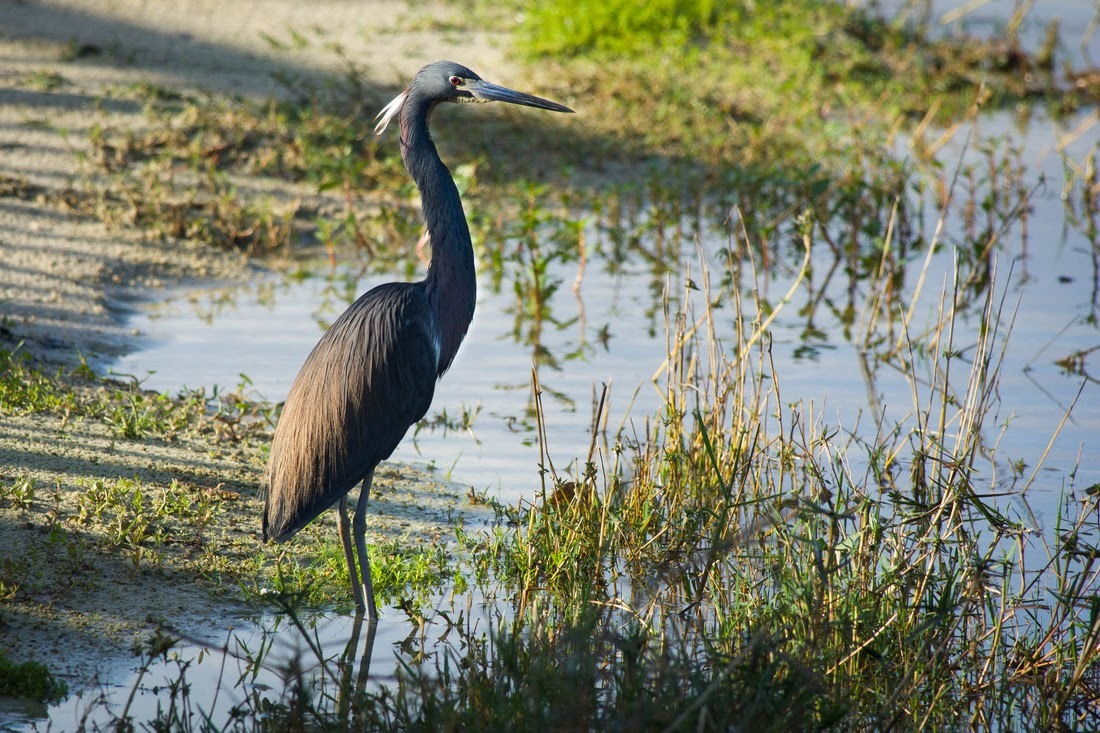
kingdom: Animalia
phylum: Chordata
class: Aves
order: Pelecaniformes
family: Ardeidae
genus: Egretta
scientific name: Egretta tricolor
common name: Tricolored heron
